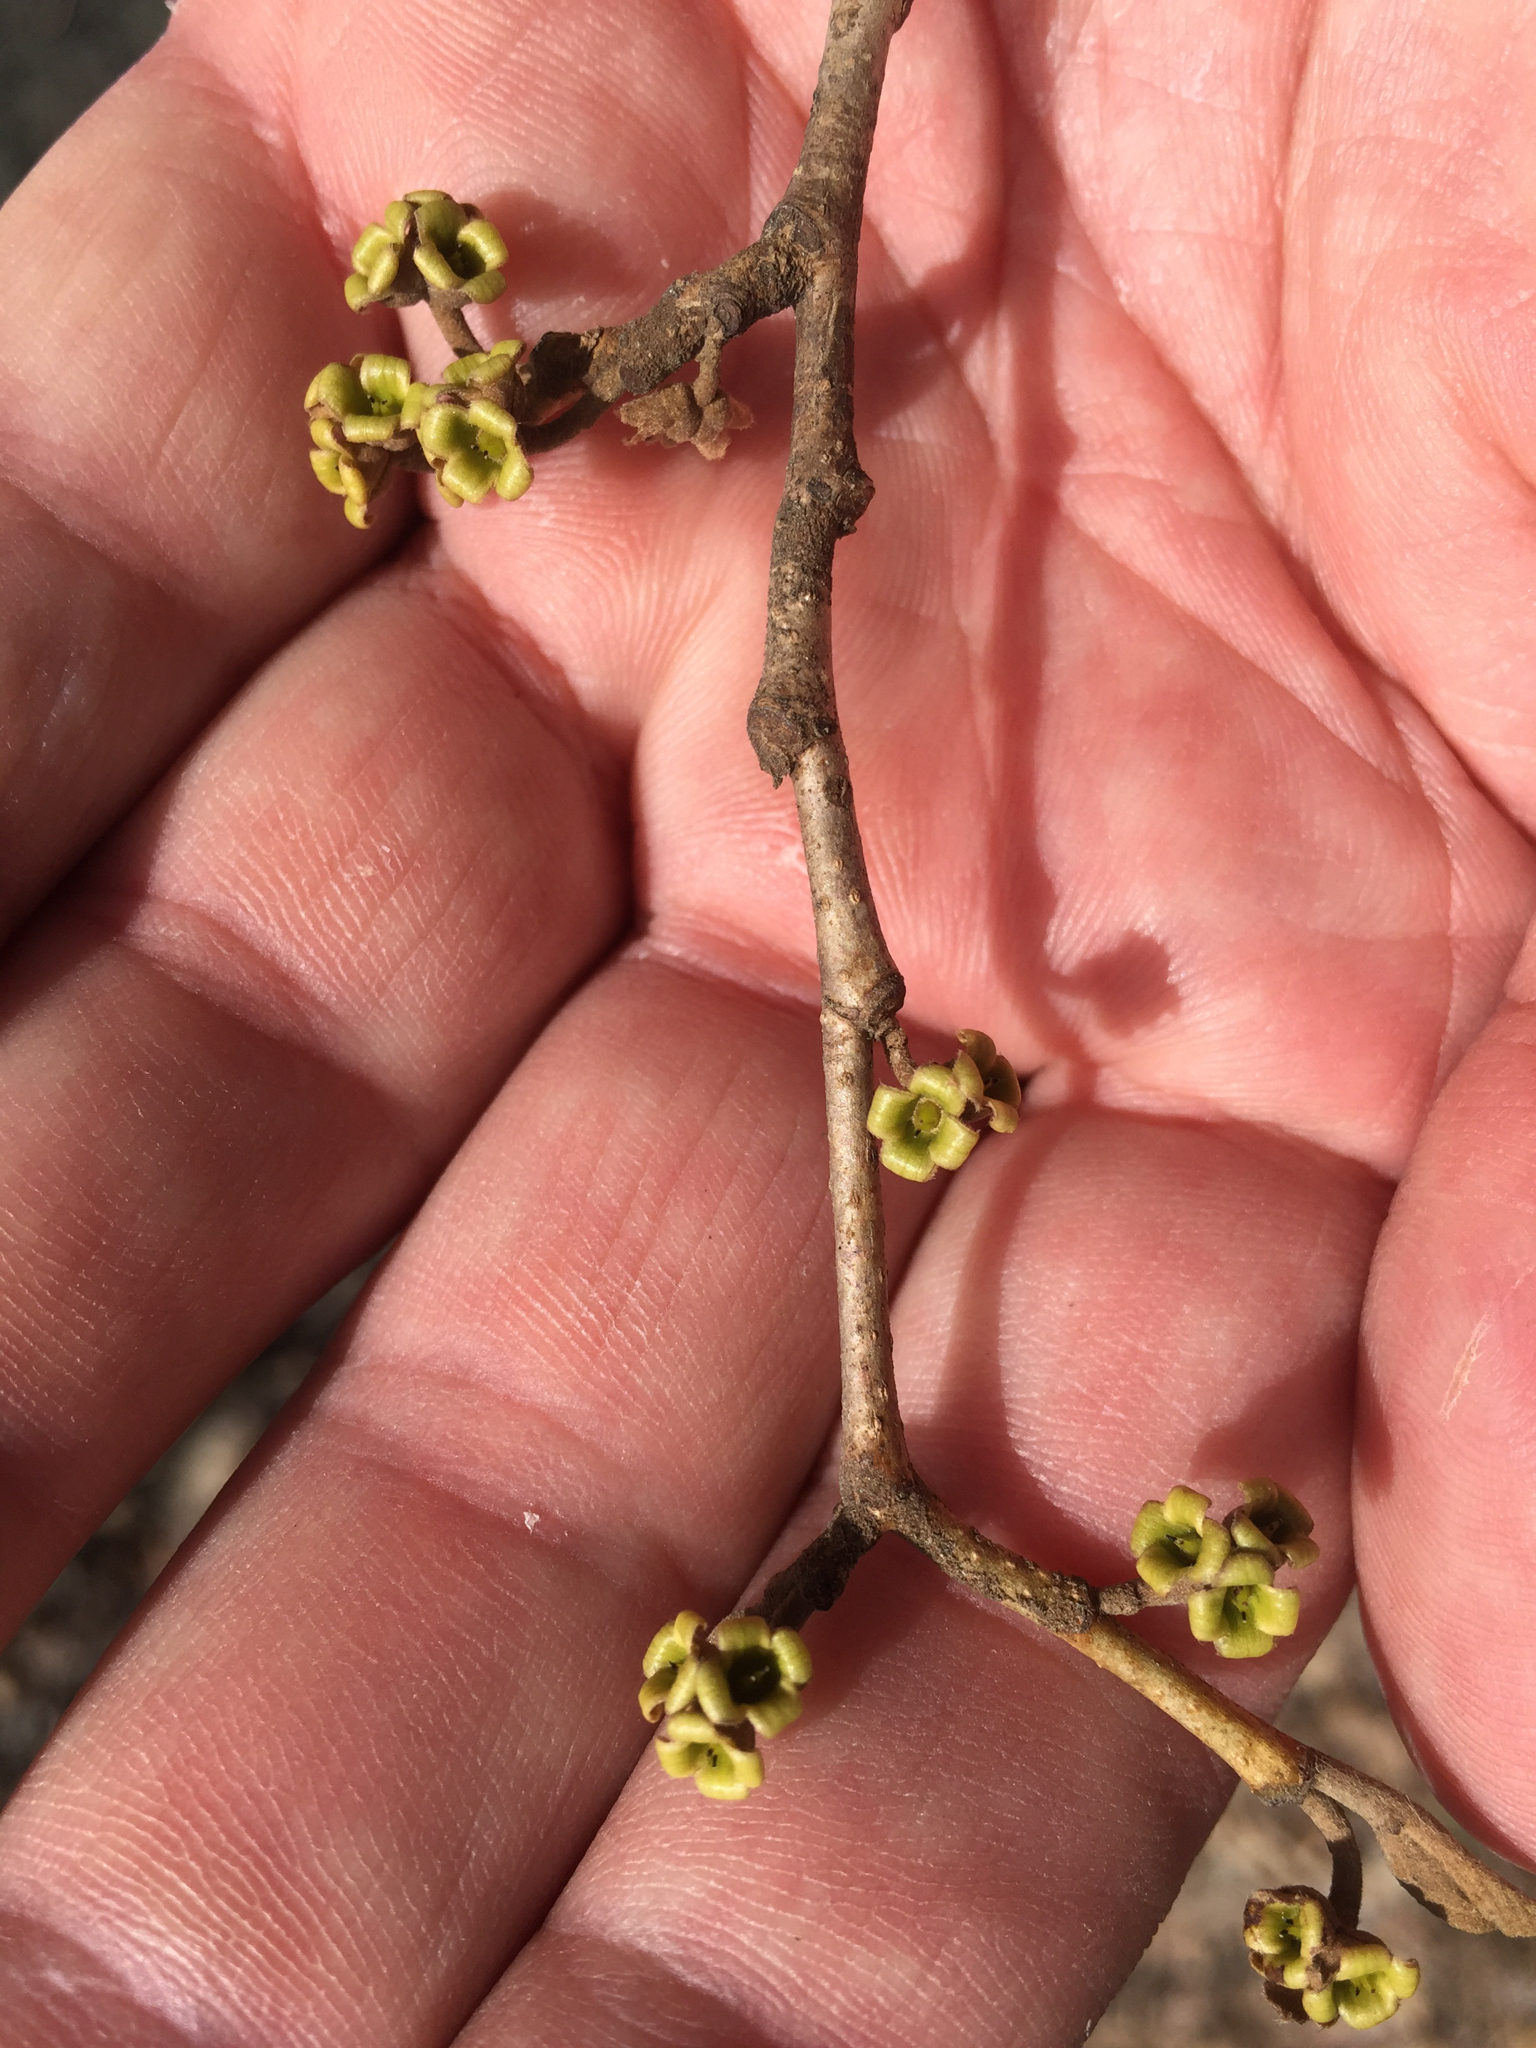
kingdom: Plantae
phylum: Tracheophyta
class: Magnoliopsida
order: Saxifragales
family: Hamamelidaceae
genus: Hamamelis
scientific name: Hamamelis virginiana
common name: Witch-hazel
